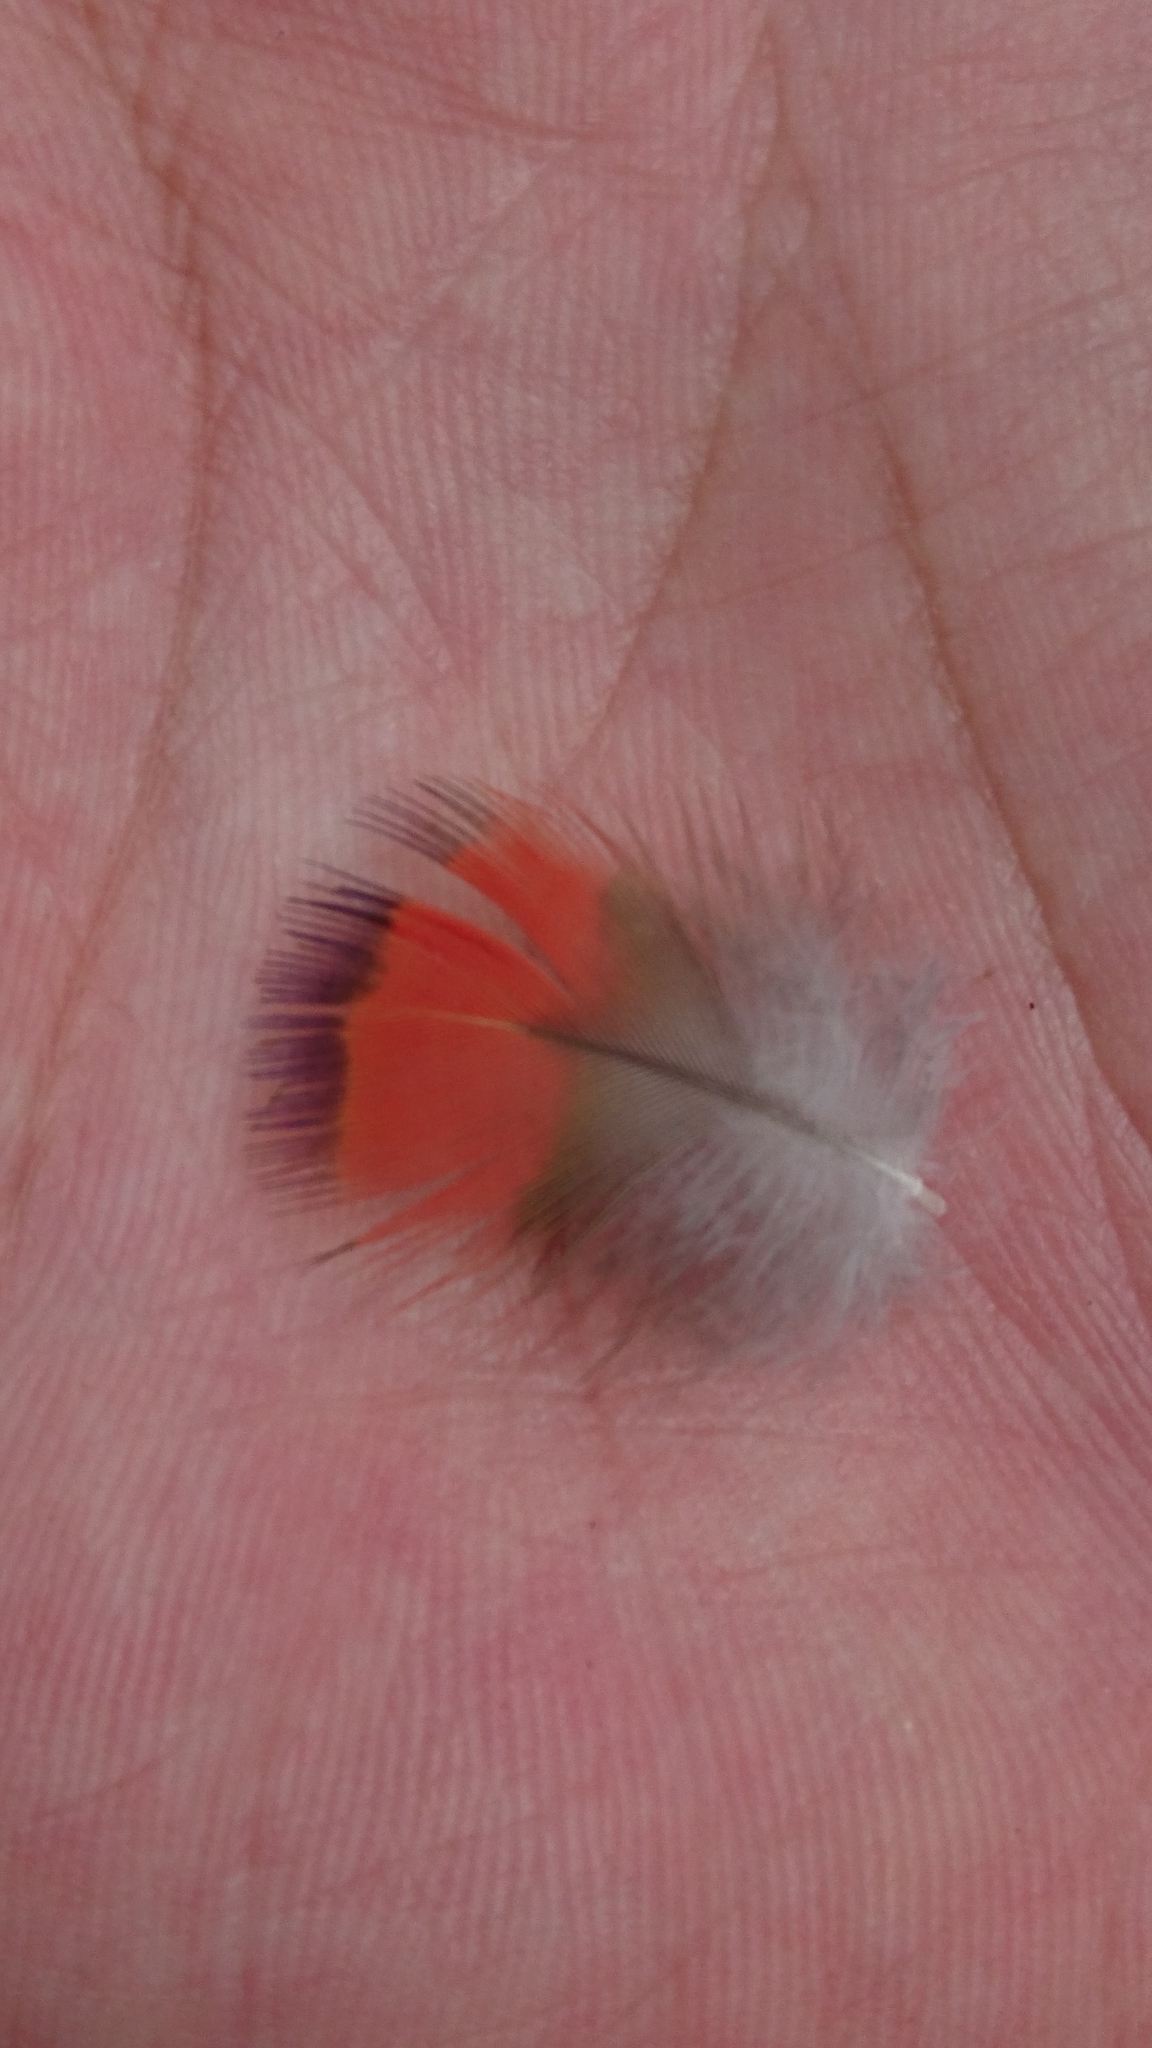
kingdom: Animalia
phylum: Chordata
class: Aves
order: Psittaciformes
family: Psittacidae
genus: Trichoglossus
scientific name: Trichoglossus haematodus
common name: Coconut lorikeet
